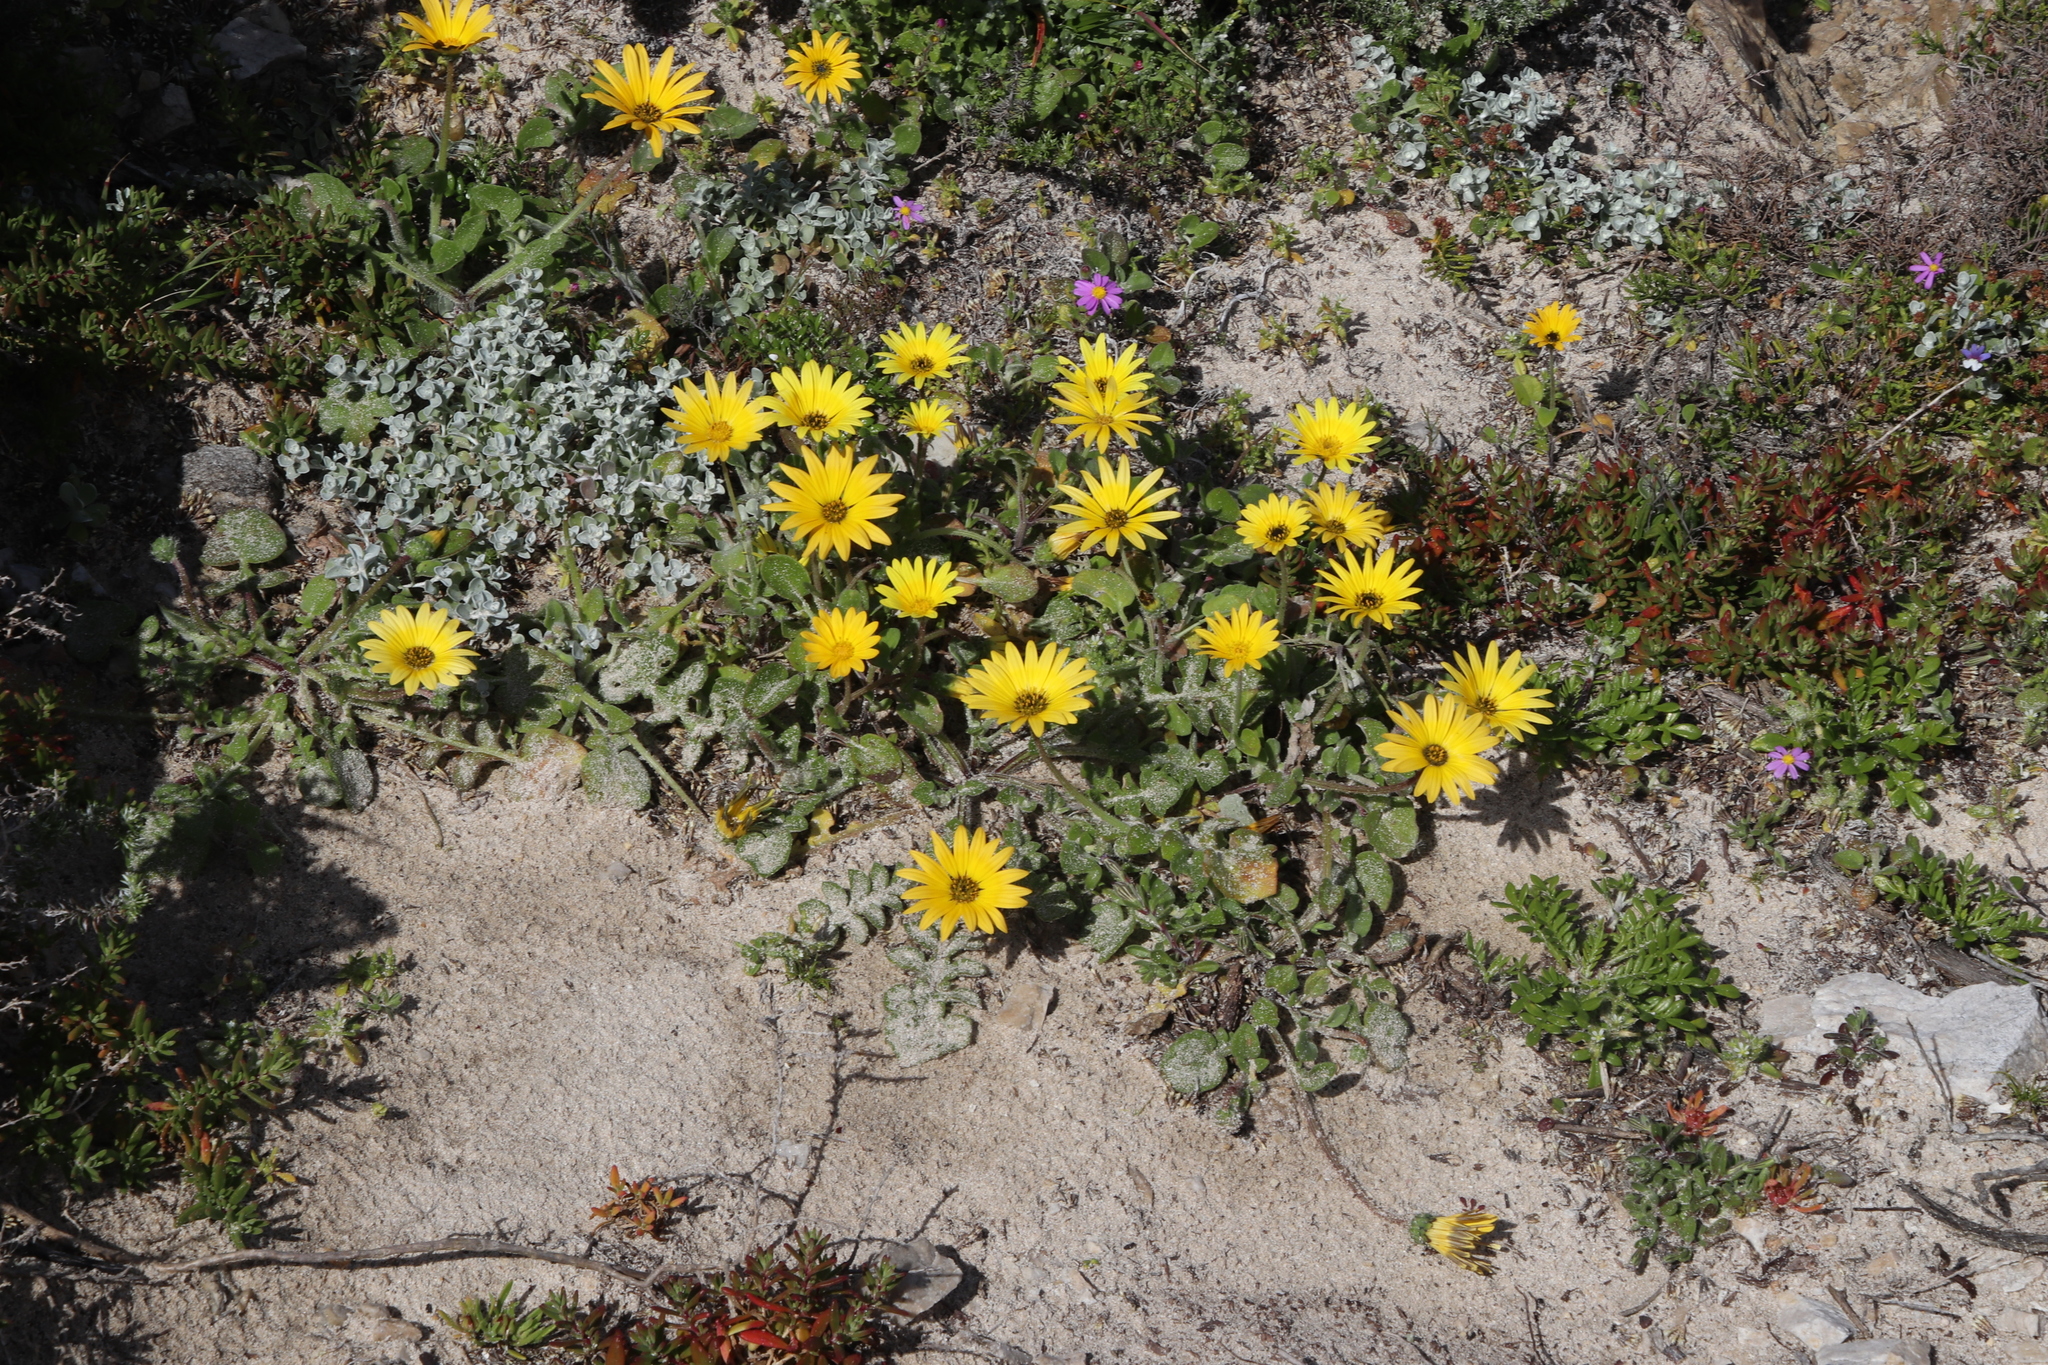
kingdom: Plantae
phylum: Tracheophyta
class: Magnoliopsida
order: Asterales
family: Asteraceae
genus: Arctotheca
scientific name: Arctotheca calendula
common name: Capeweed
